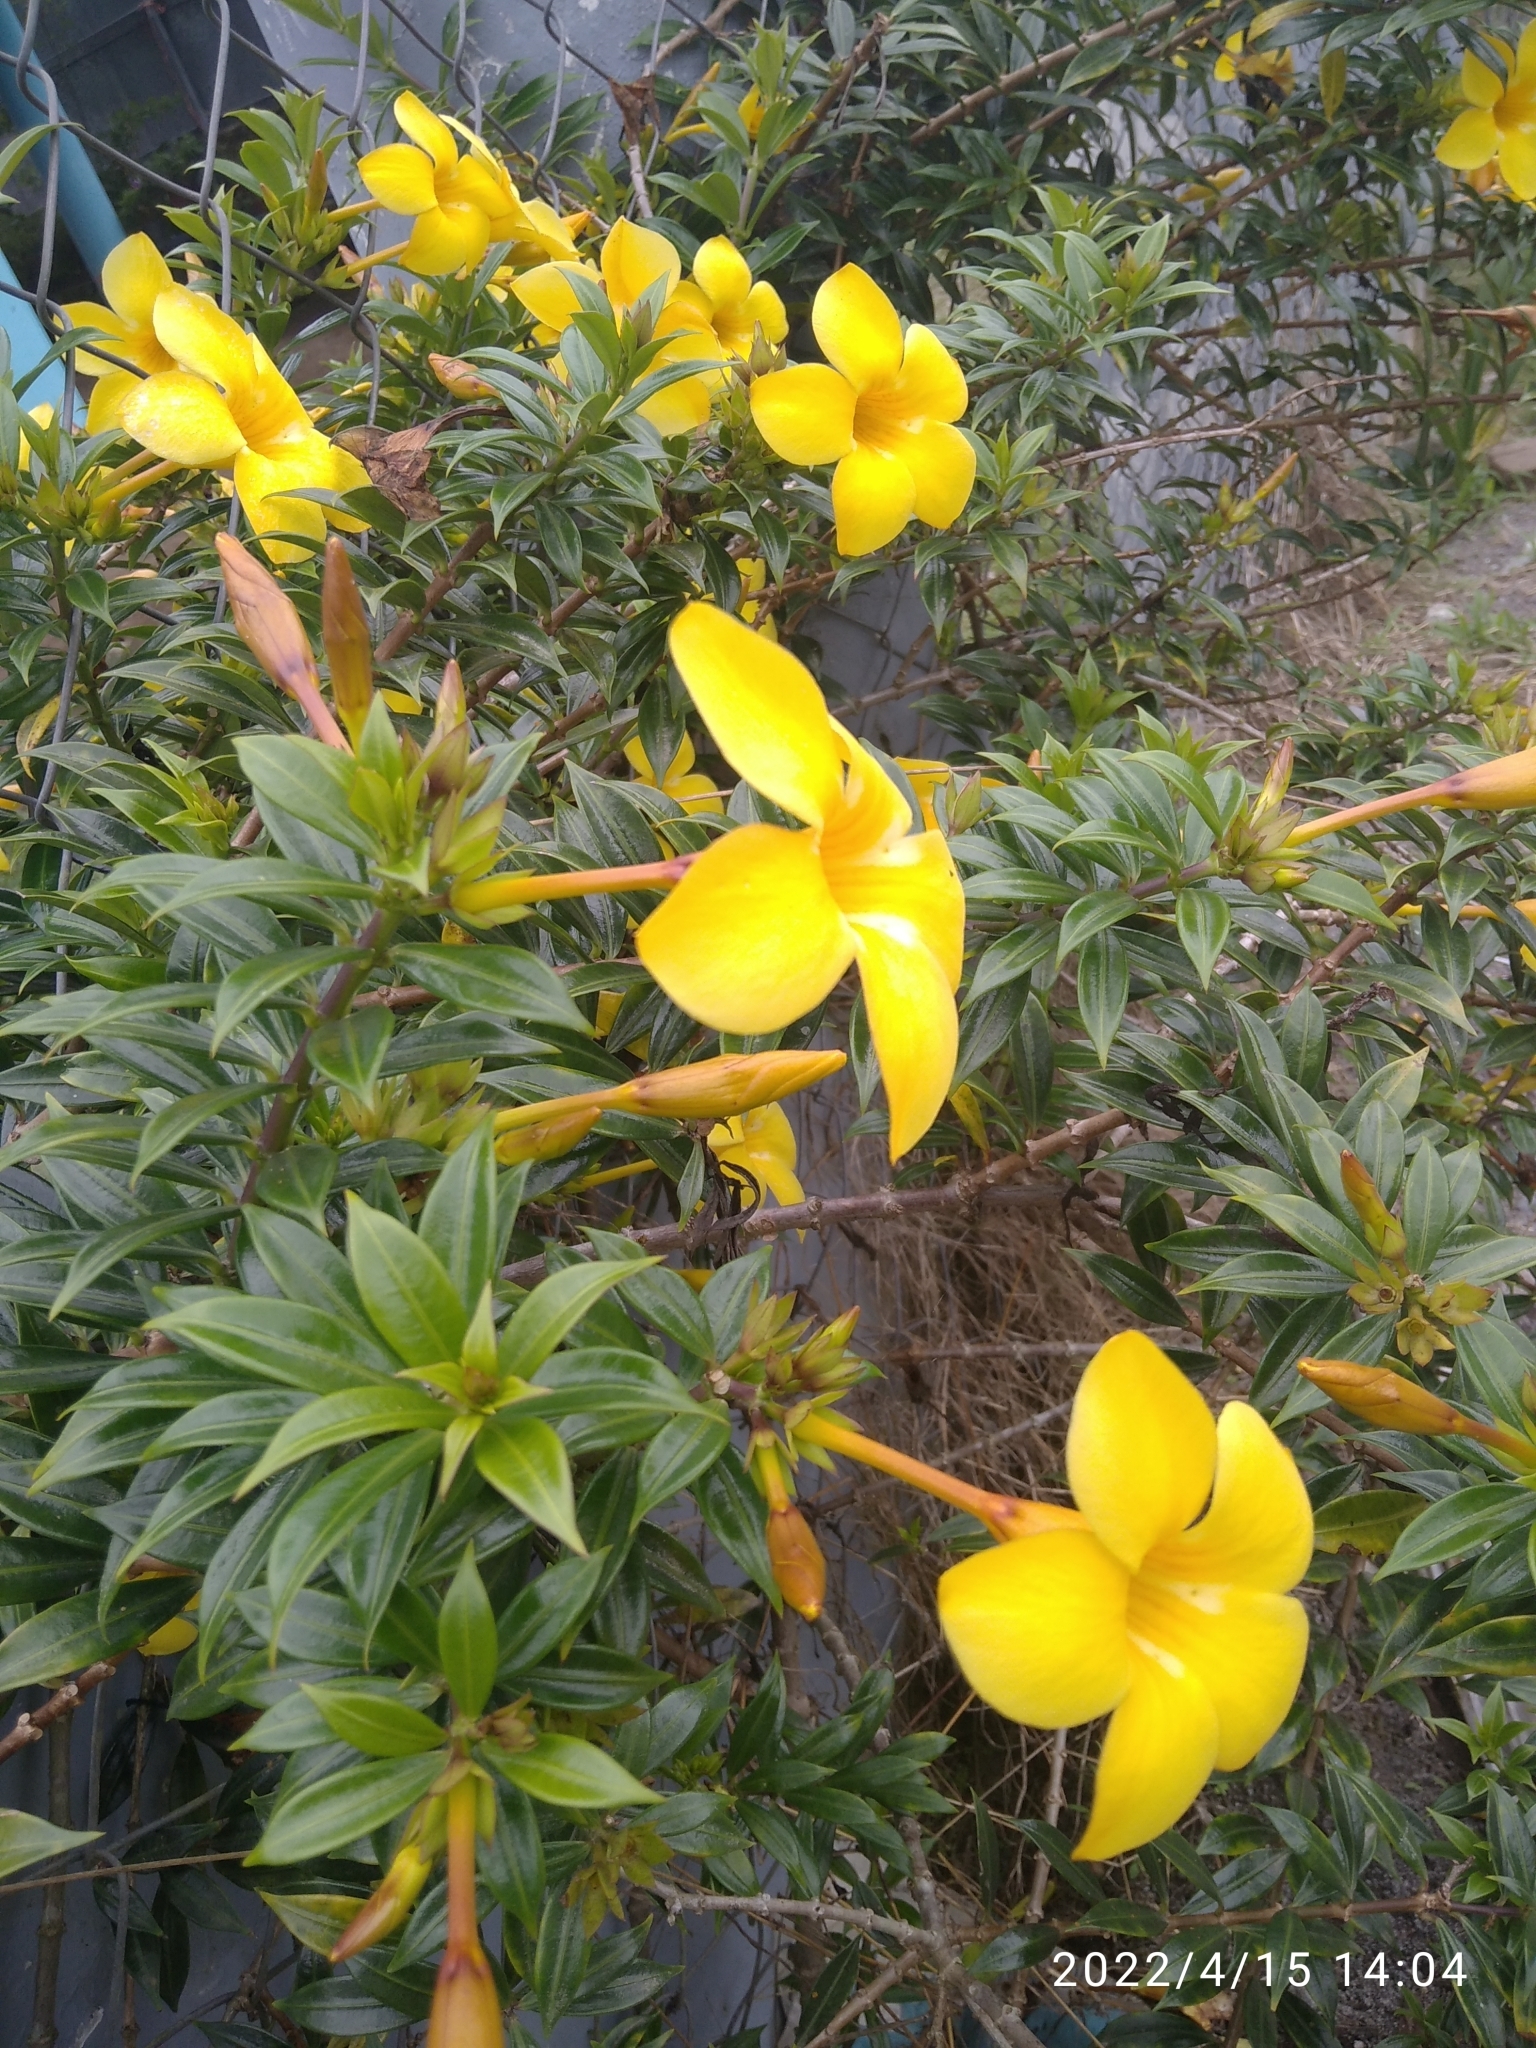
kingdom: Plantae
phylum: Tracheophyta
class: Magnoliopsida
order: Gentianales
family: Apocynaceae
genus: Allamanda
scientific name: Allamanda cathartica
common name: Golden trumpet
